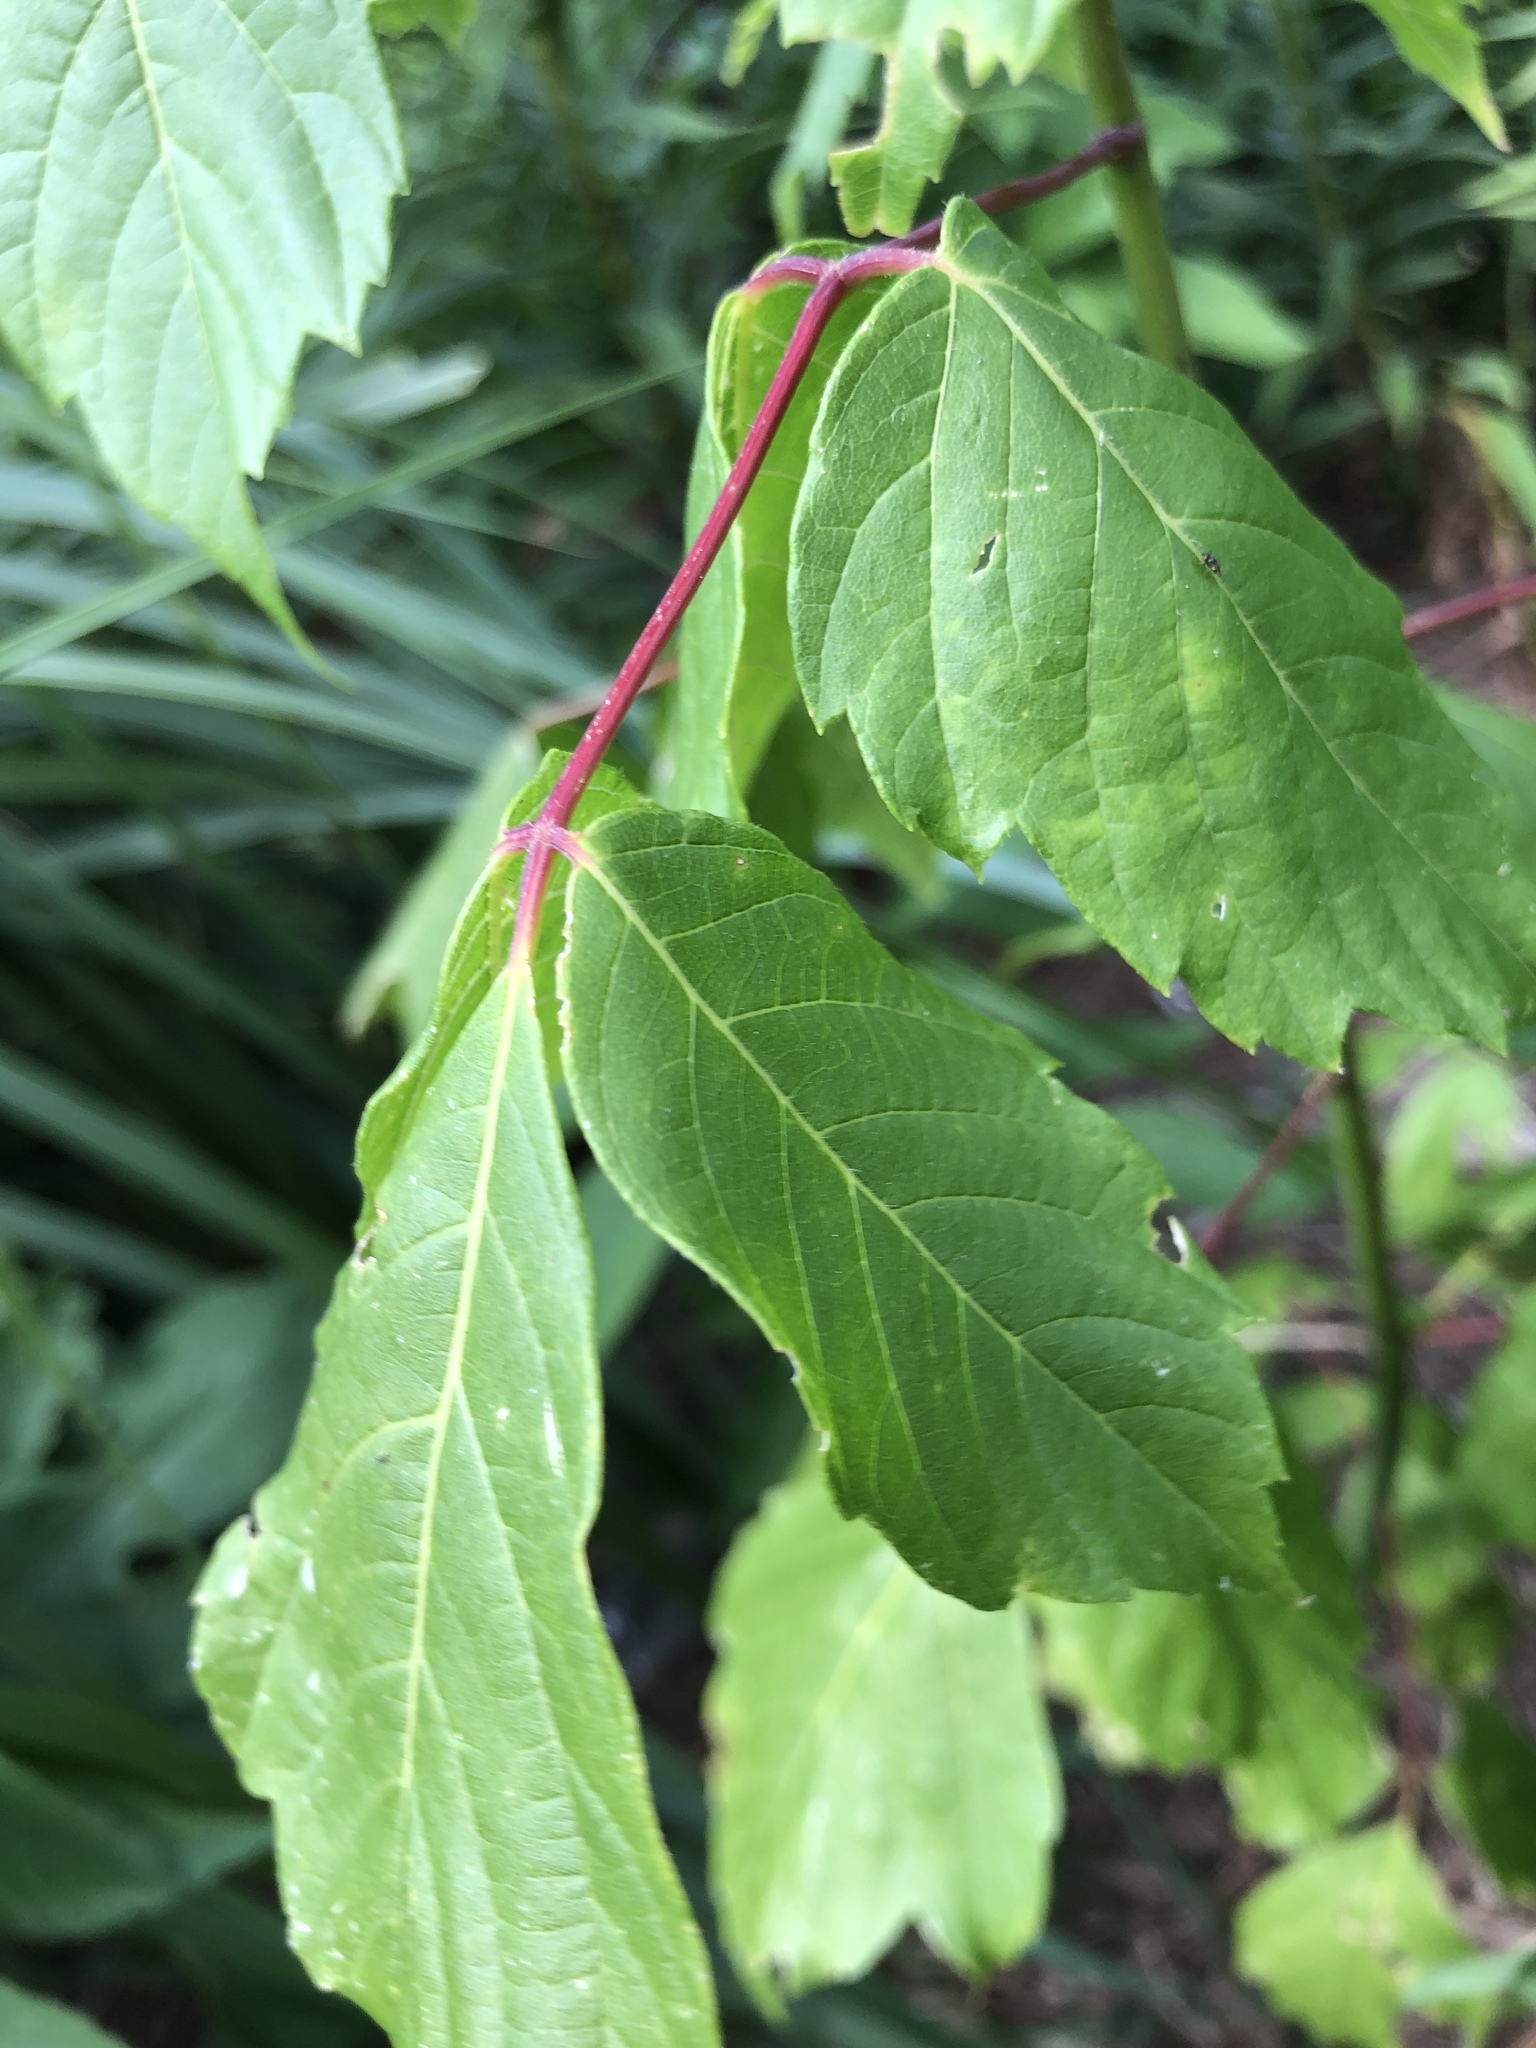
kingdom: Plantae
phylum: Tracheophyta
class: Magnoliopsida
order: Sapindales
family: Sapindaceae
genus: Acer
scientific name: Acer negundo
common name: Ashleaf maple
